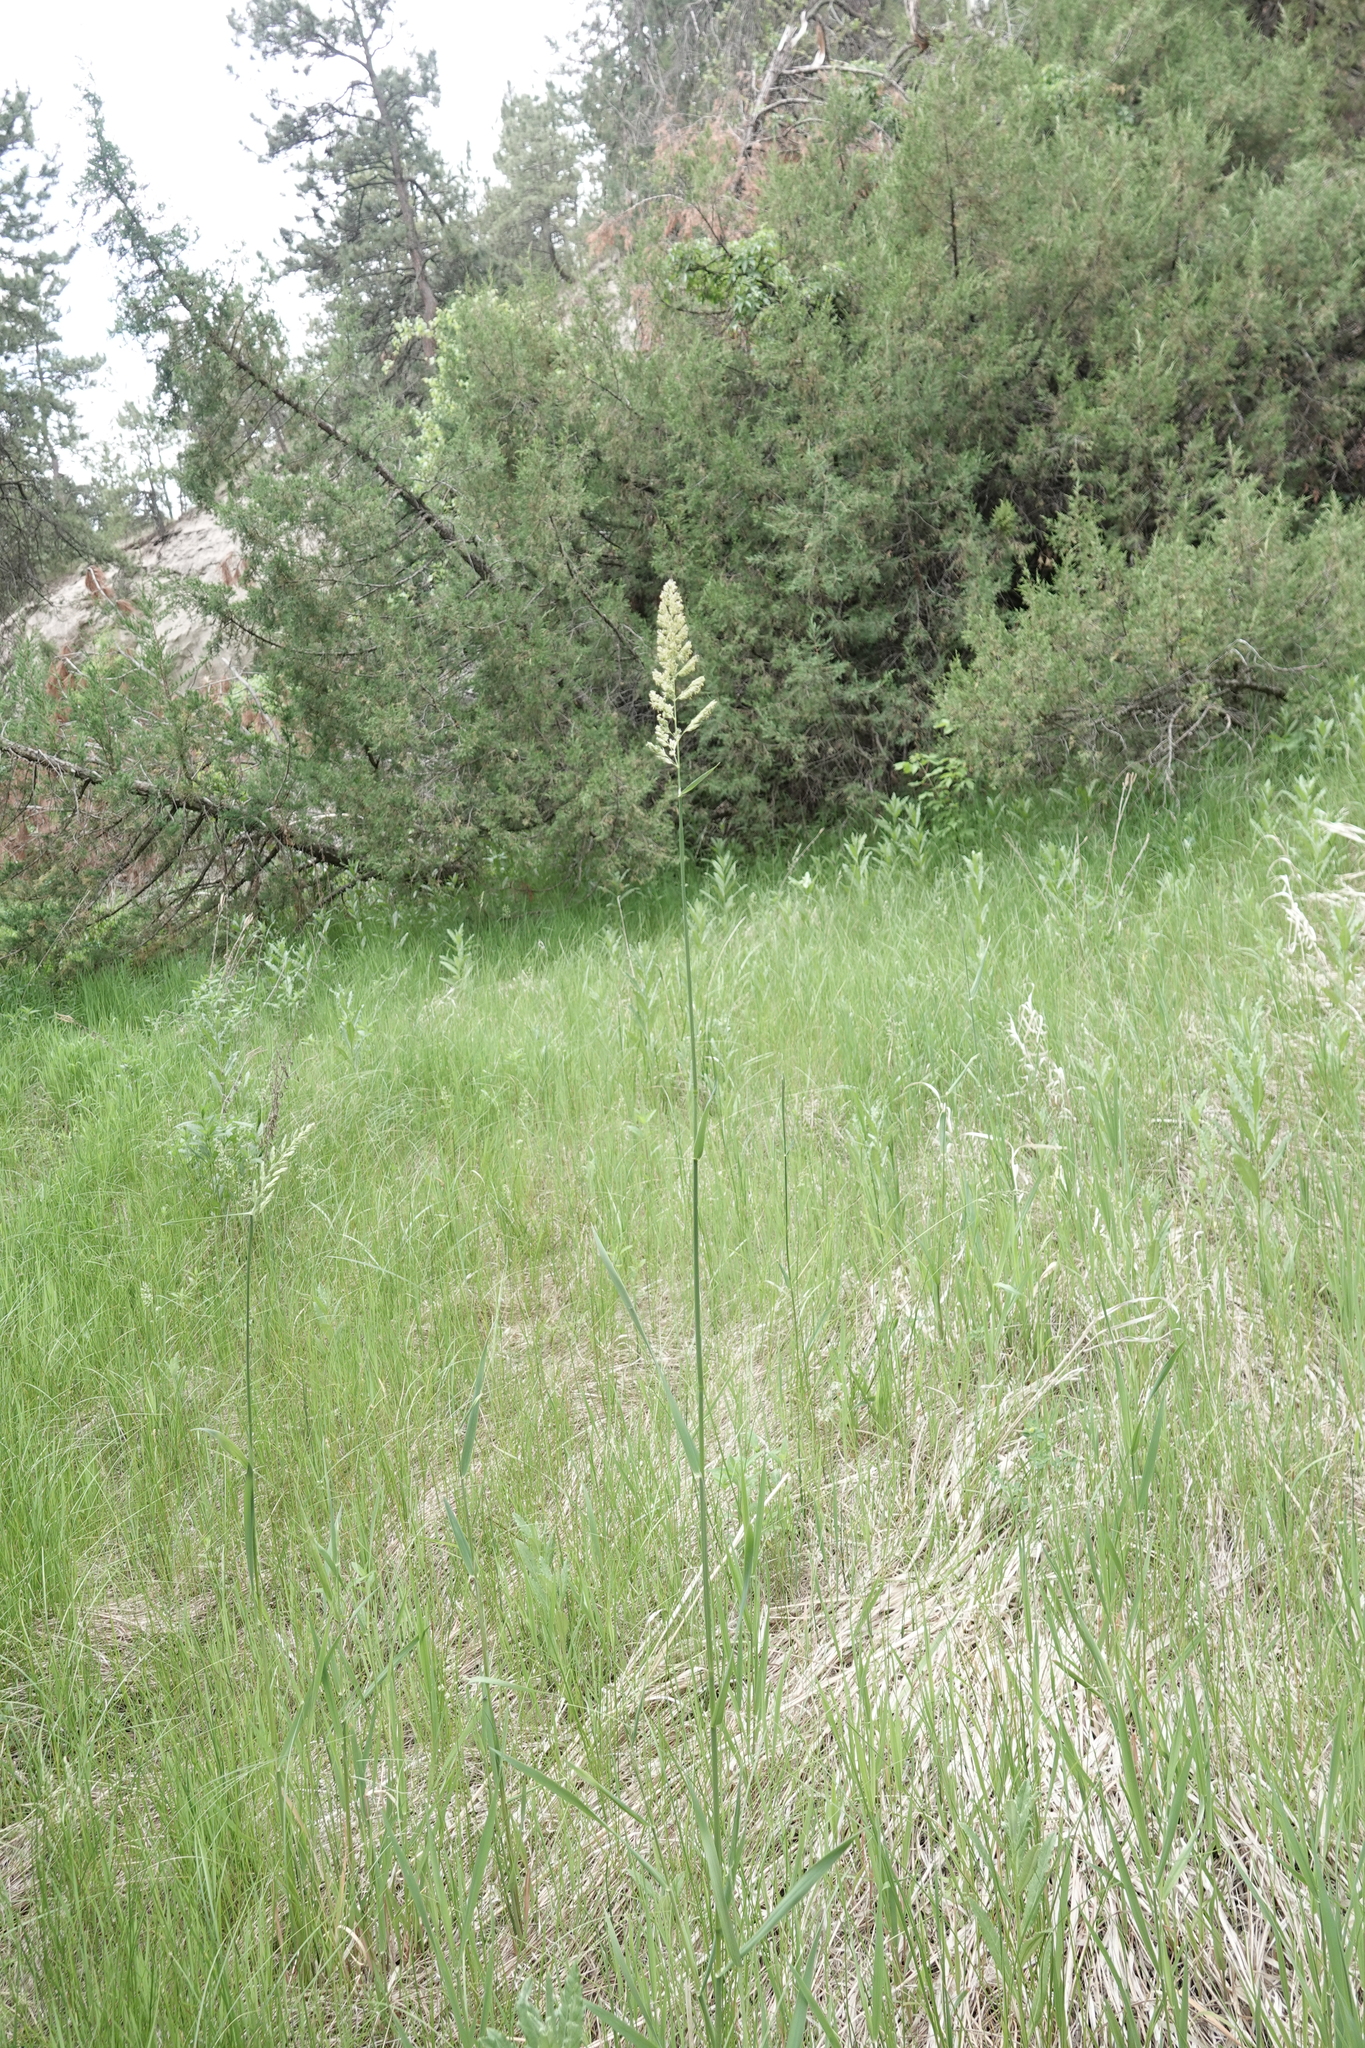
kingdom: Plantae
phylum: Tracheophyta
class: Liliopsida
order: Poales
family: Poaceae
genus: Phalaris
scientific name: Phalaris arundinacea
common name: Reed canary-grass
